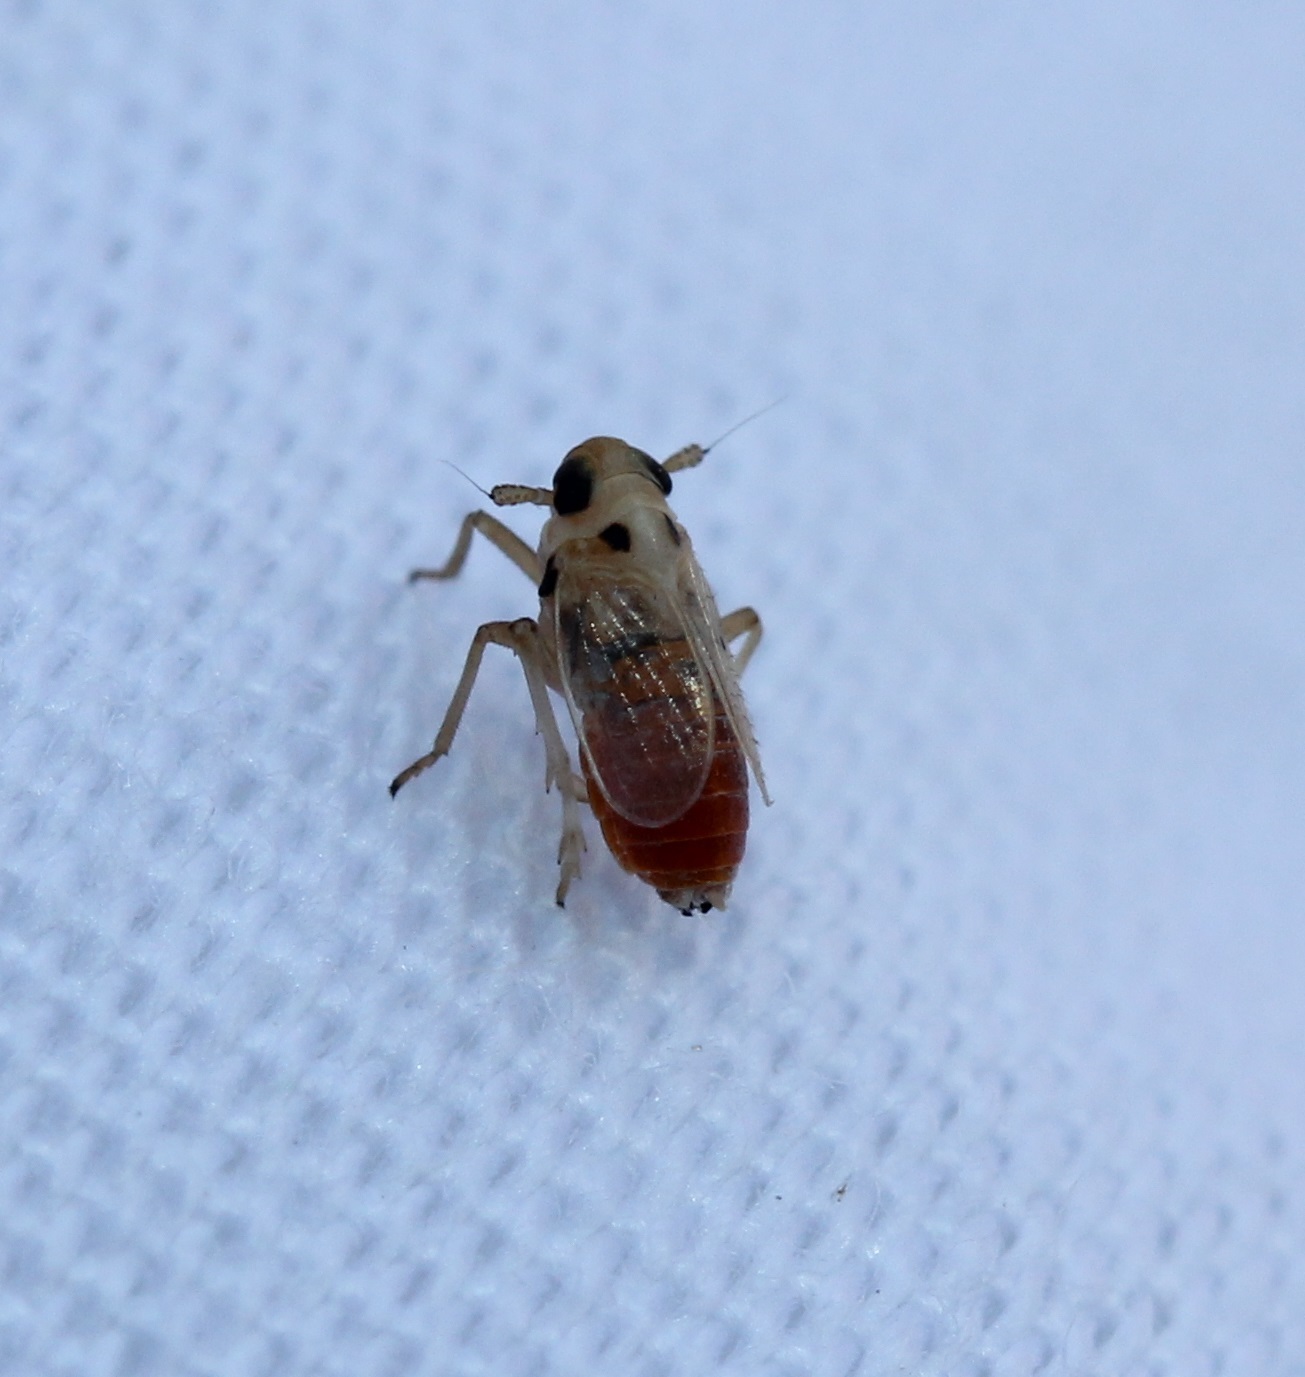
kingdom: Animalia
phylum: Arthropoda
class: Insecta
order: Hemiptera
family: Delphacidae
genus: Muirodelphax
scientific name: Muirodelphax arvensis
